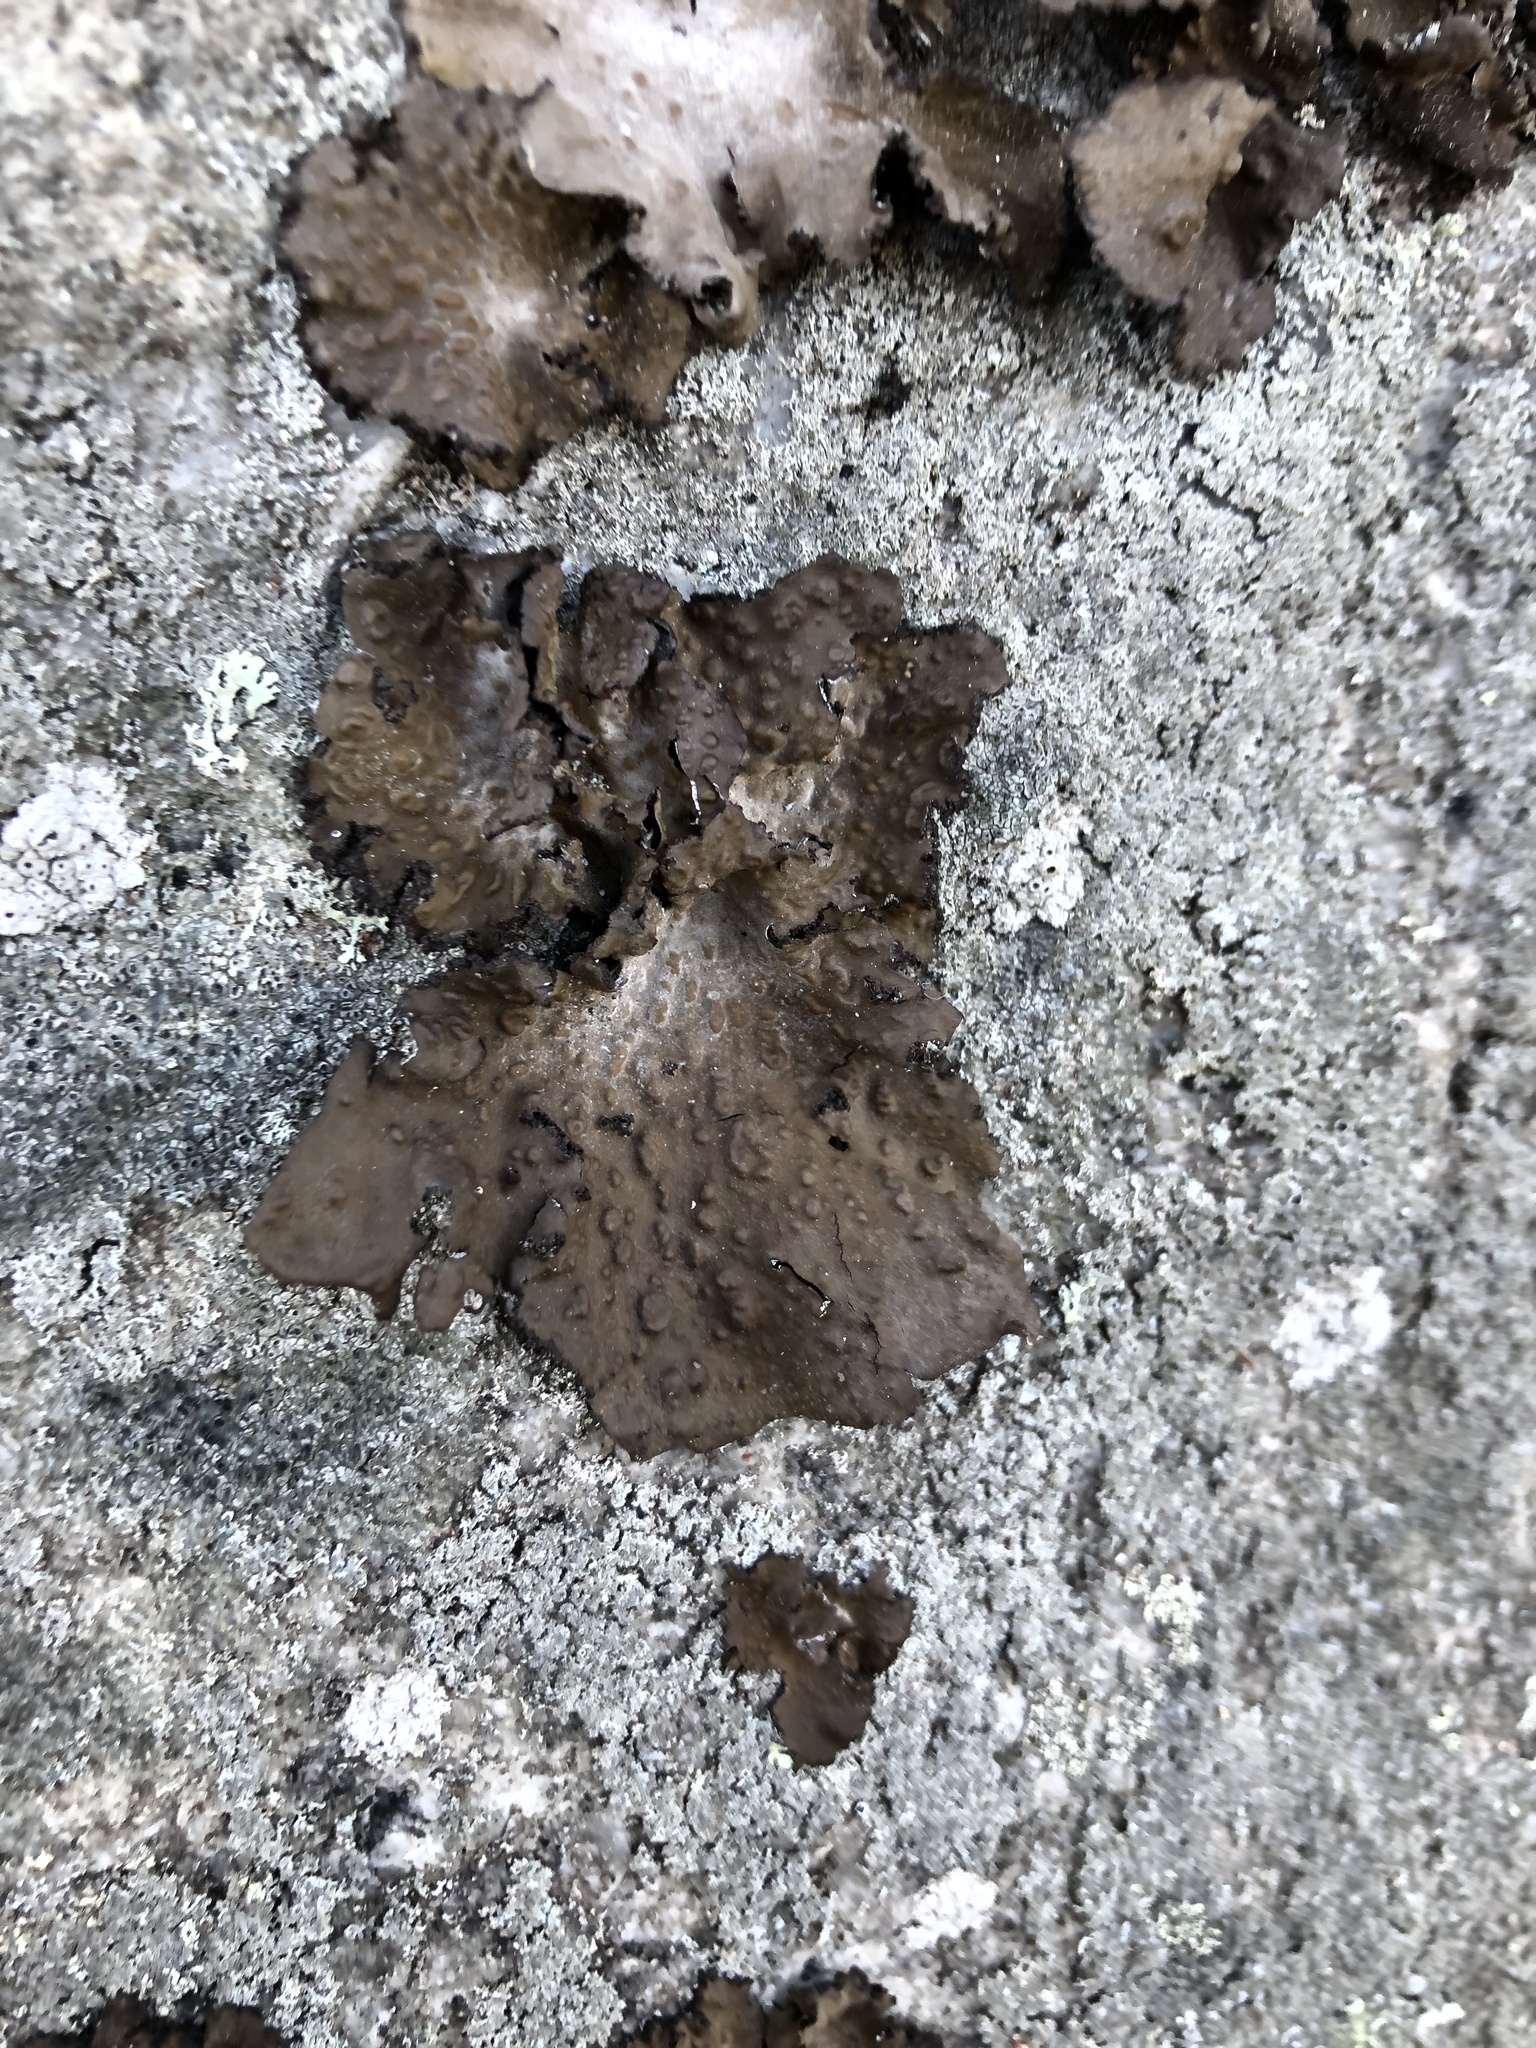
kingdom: Fungi
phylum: Ascomycota
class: Lecanoromycetes
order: Umbilicariales
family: Umbilicariaceae
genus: Lasallia
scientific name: Lasallia pensylvanica
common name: Blackened toadskin lichen
